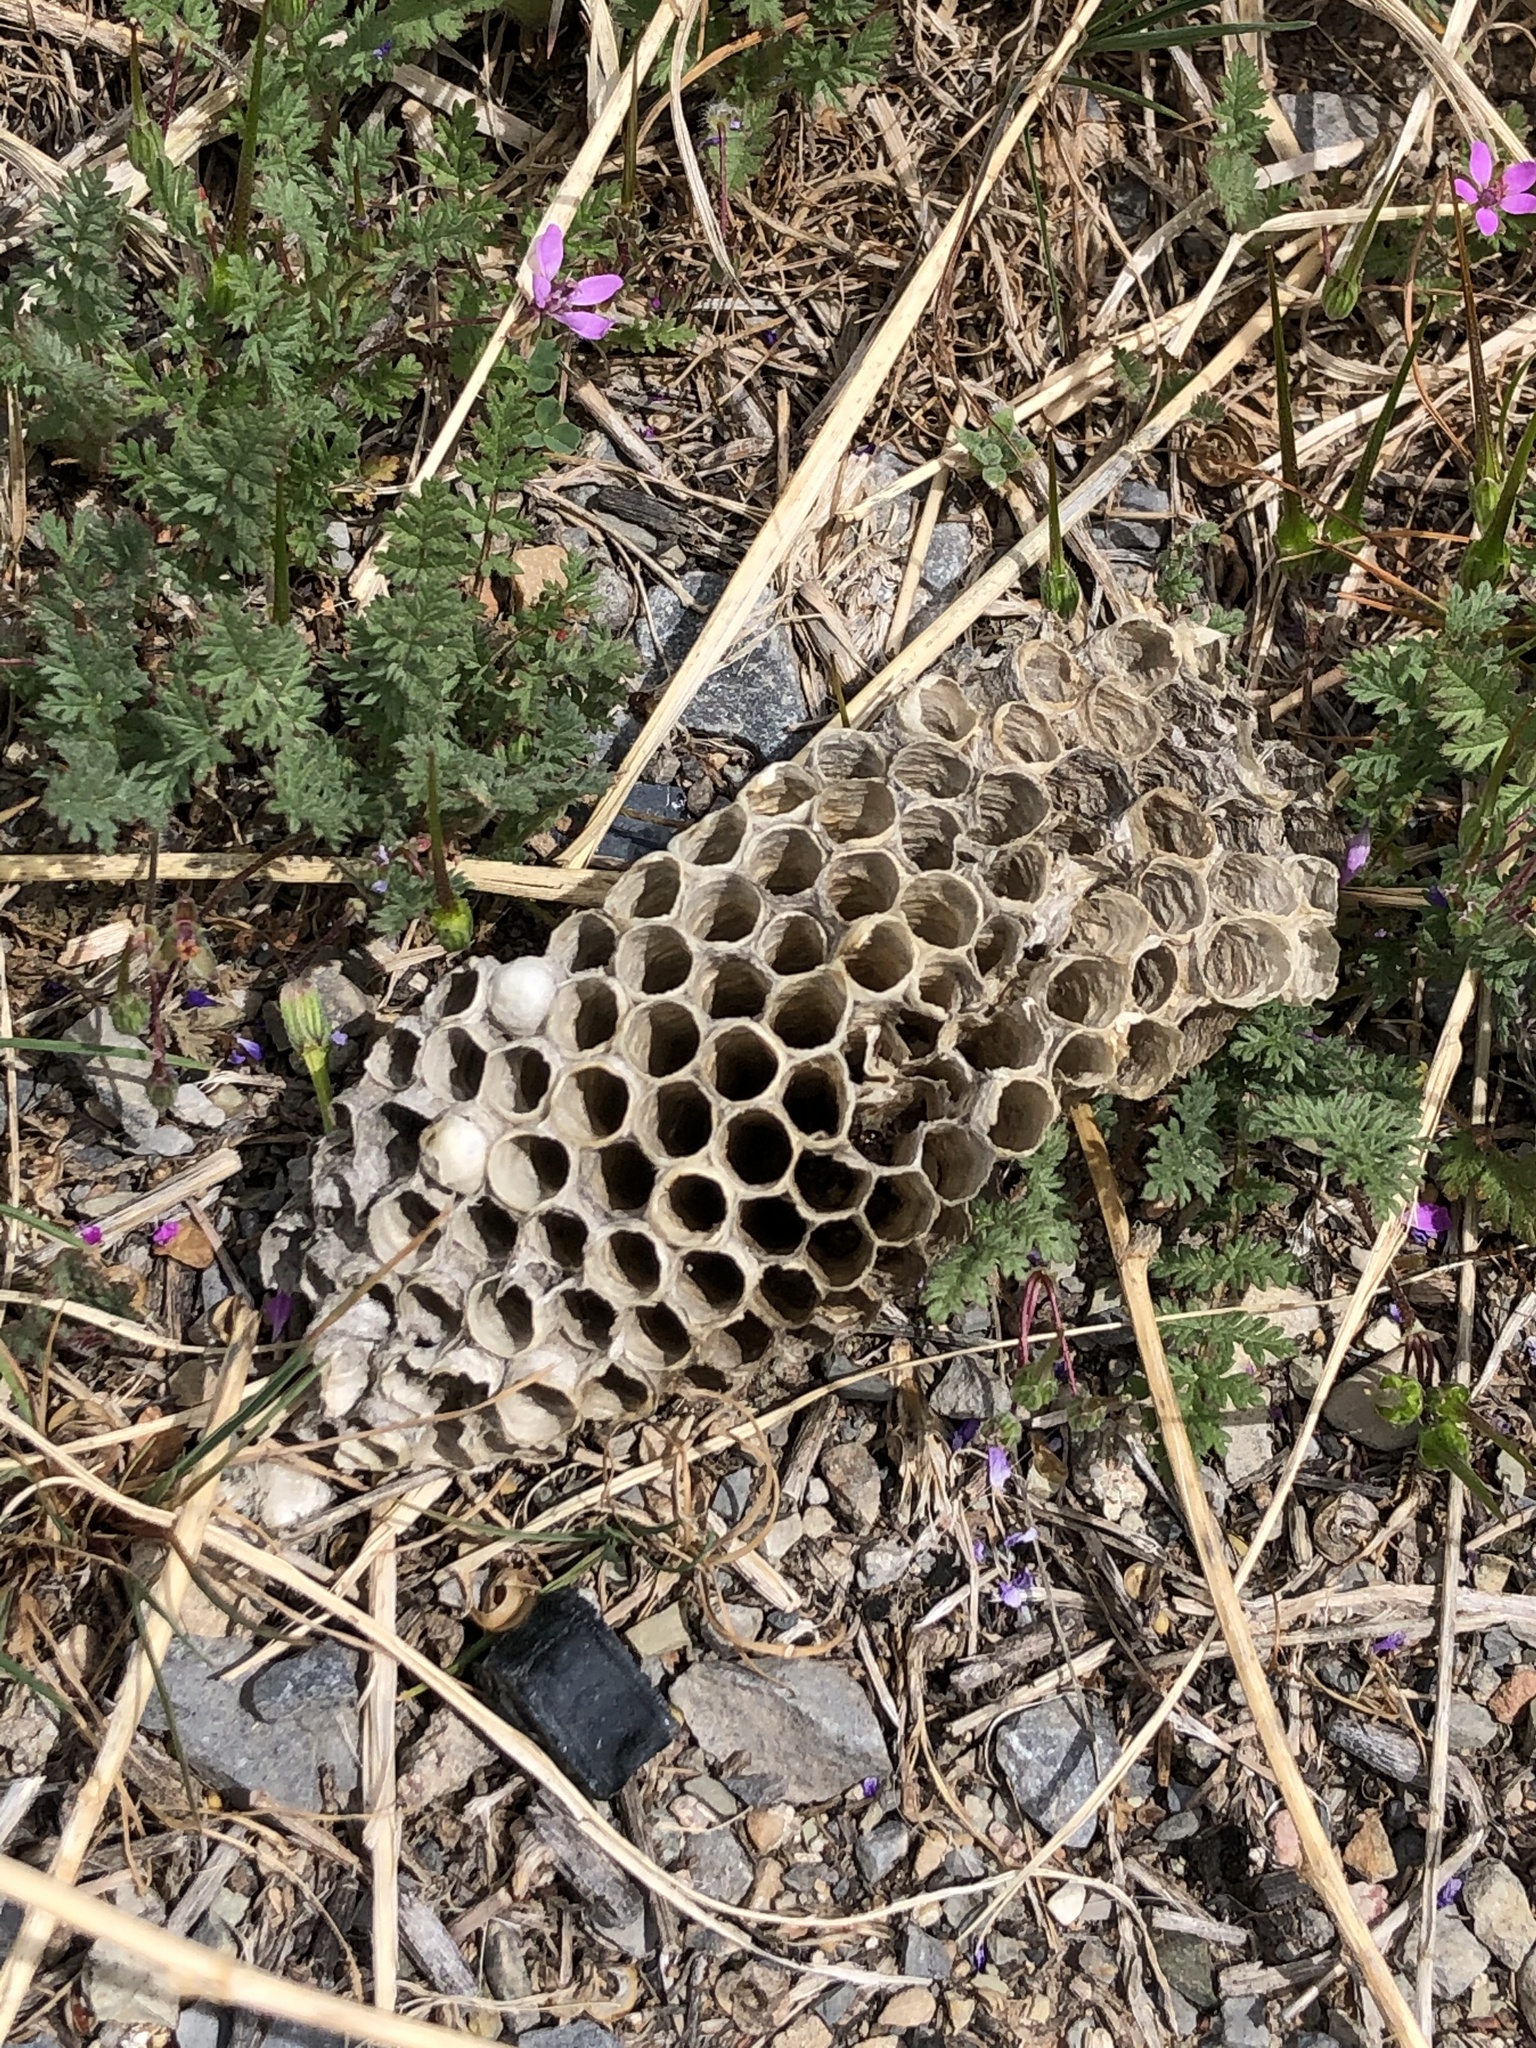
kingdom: Animalia
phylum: Arthropoda
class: Insecta
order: Hymenoptera
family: Vespidae
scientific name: Vespidae
